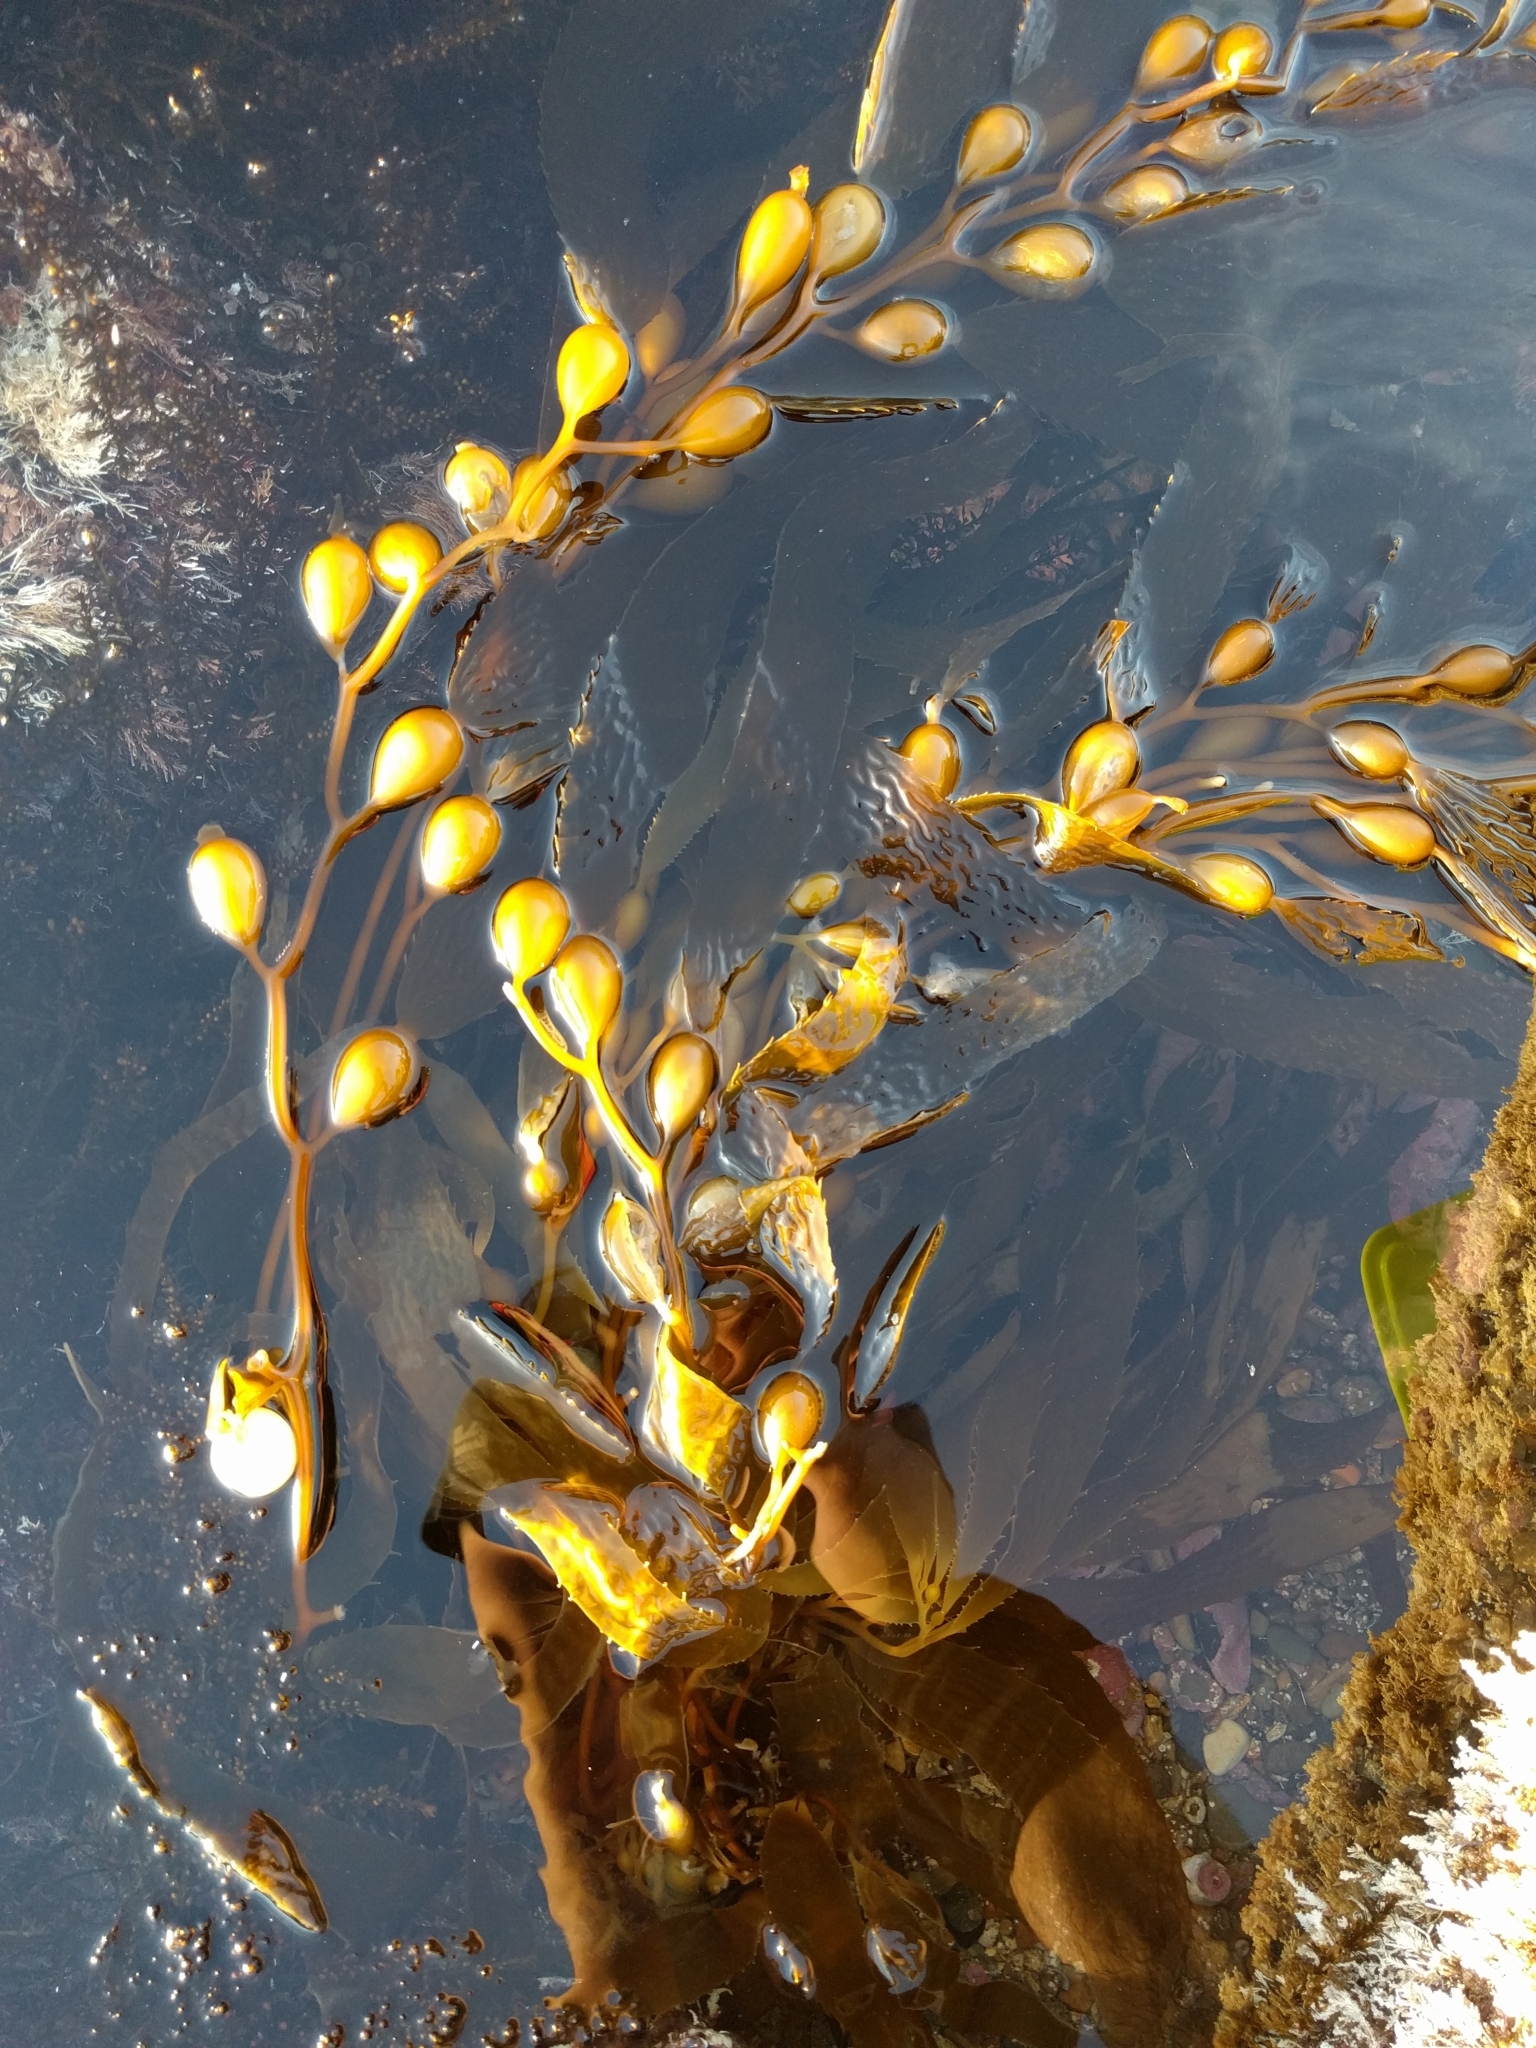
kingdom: Chromista
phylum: Ochrophyta
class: Phaeophyceae
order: Laminariales
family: Laminariaceae
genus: Macrocystis
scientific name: Macrocystis pyrifera
